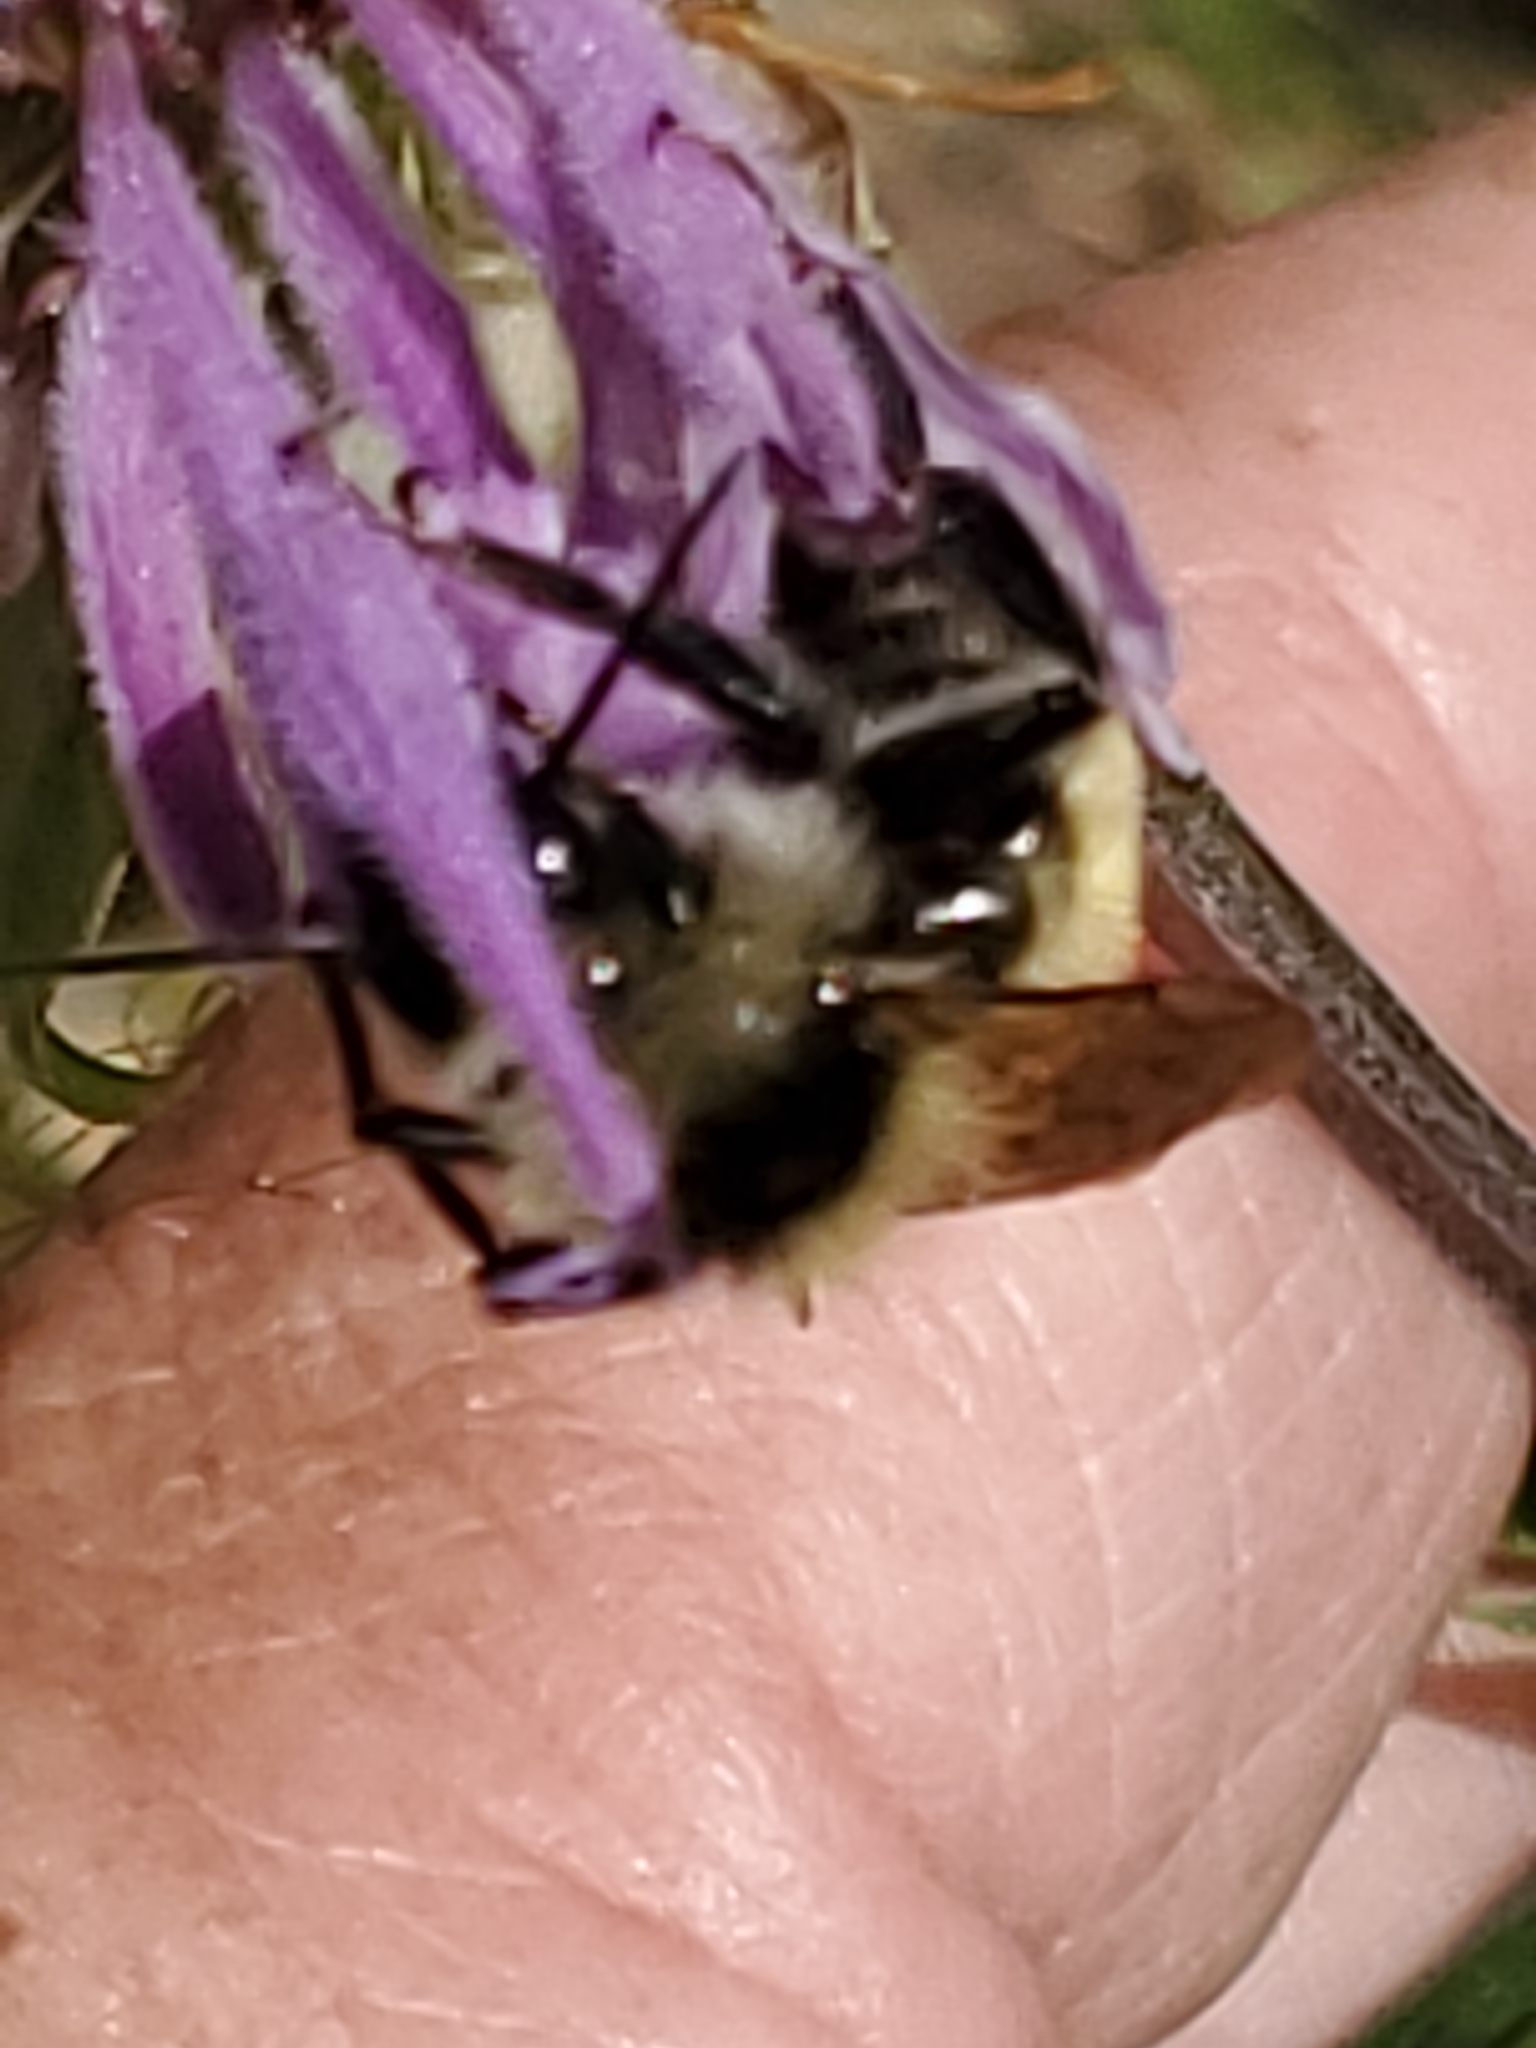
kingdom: Animalia
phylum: Arthropoda
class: Insecta
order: Hymenoptera
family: Apidae
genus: Bombus
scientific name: Bombus appositus
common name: White-shouldered bumble bee
